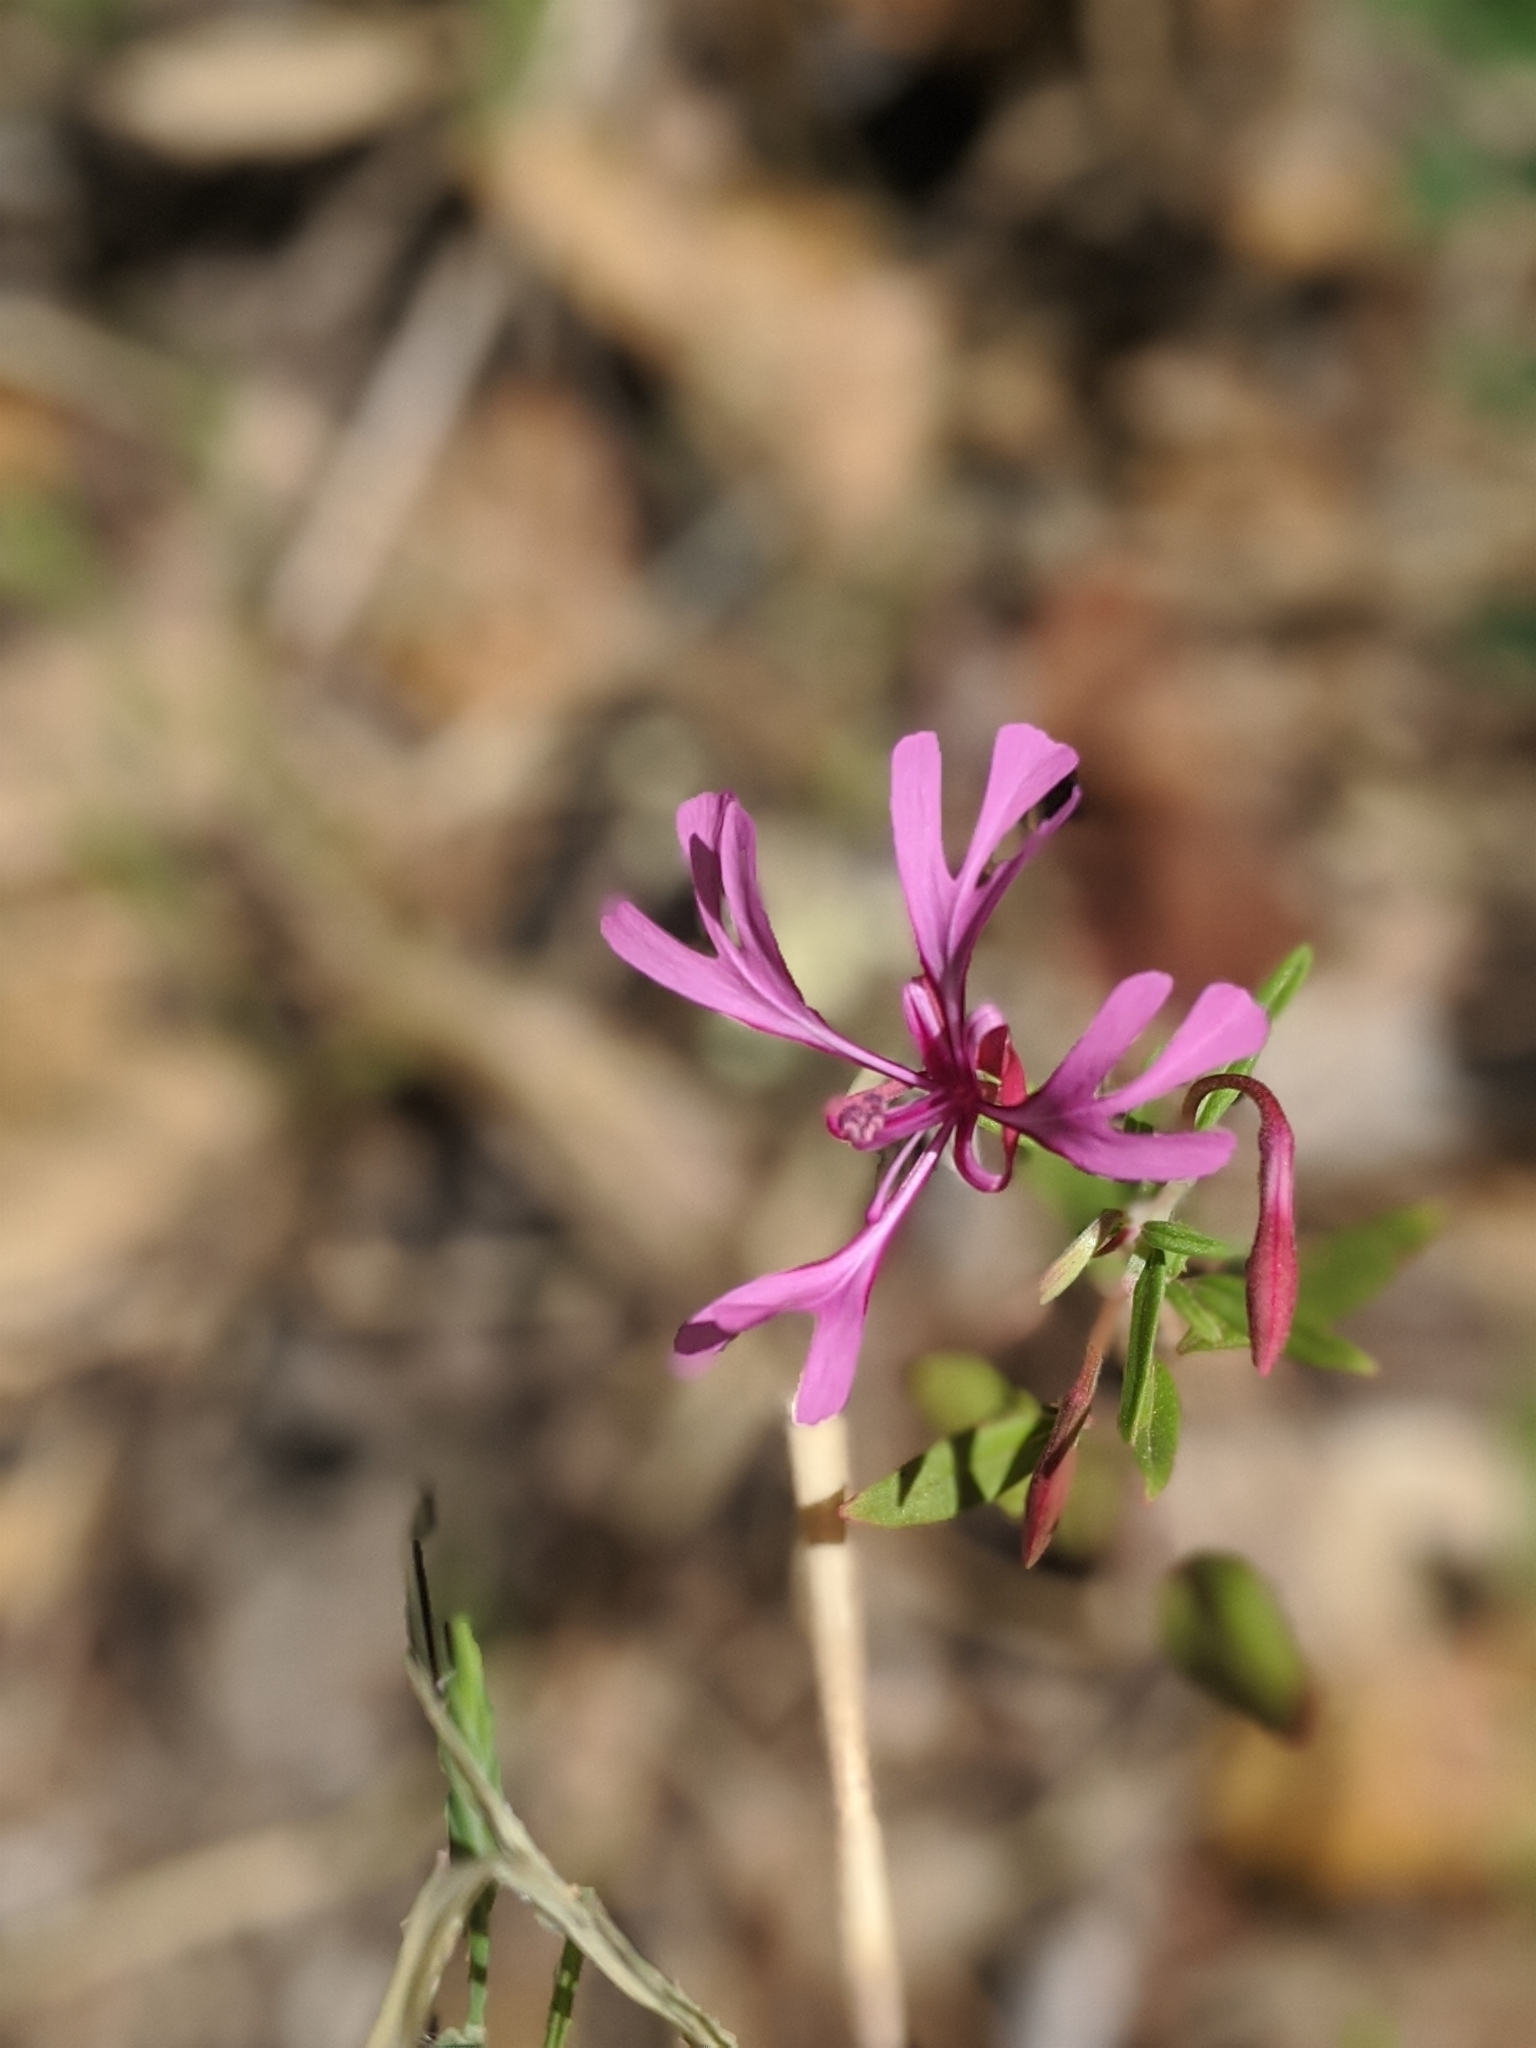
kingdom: Plantae
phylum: Tracheophyta
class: Magnoliopsida
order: Myrtales
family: Onagraceae
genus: Clarkia
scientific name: Clarkia concinna
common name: Red-ribbons
